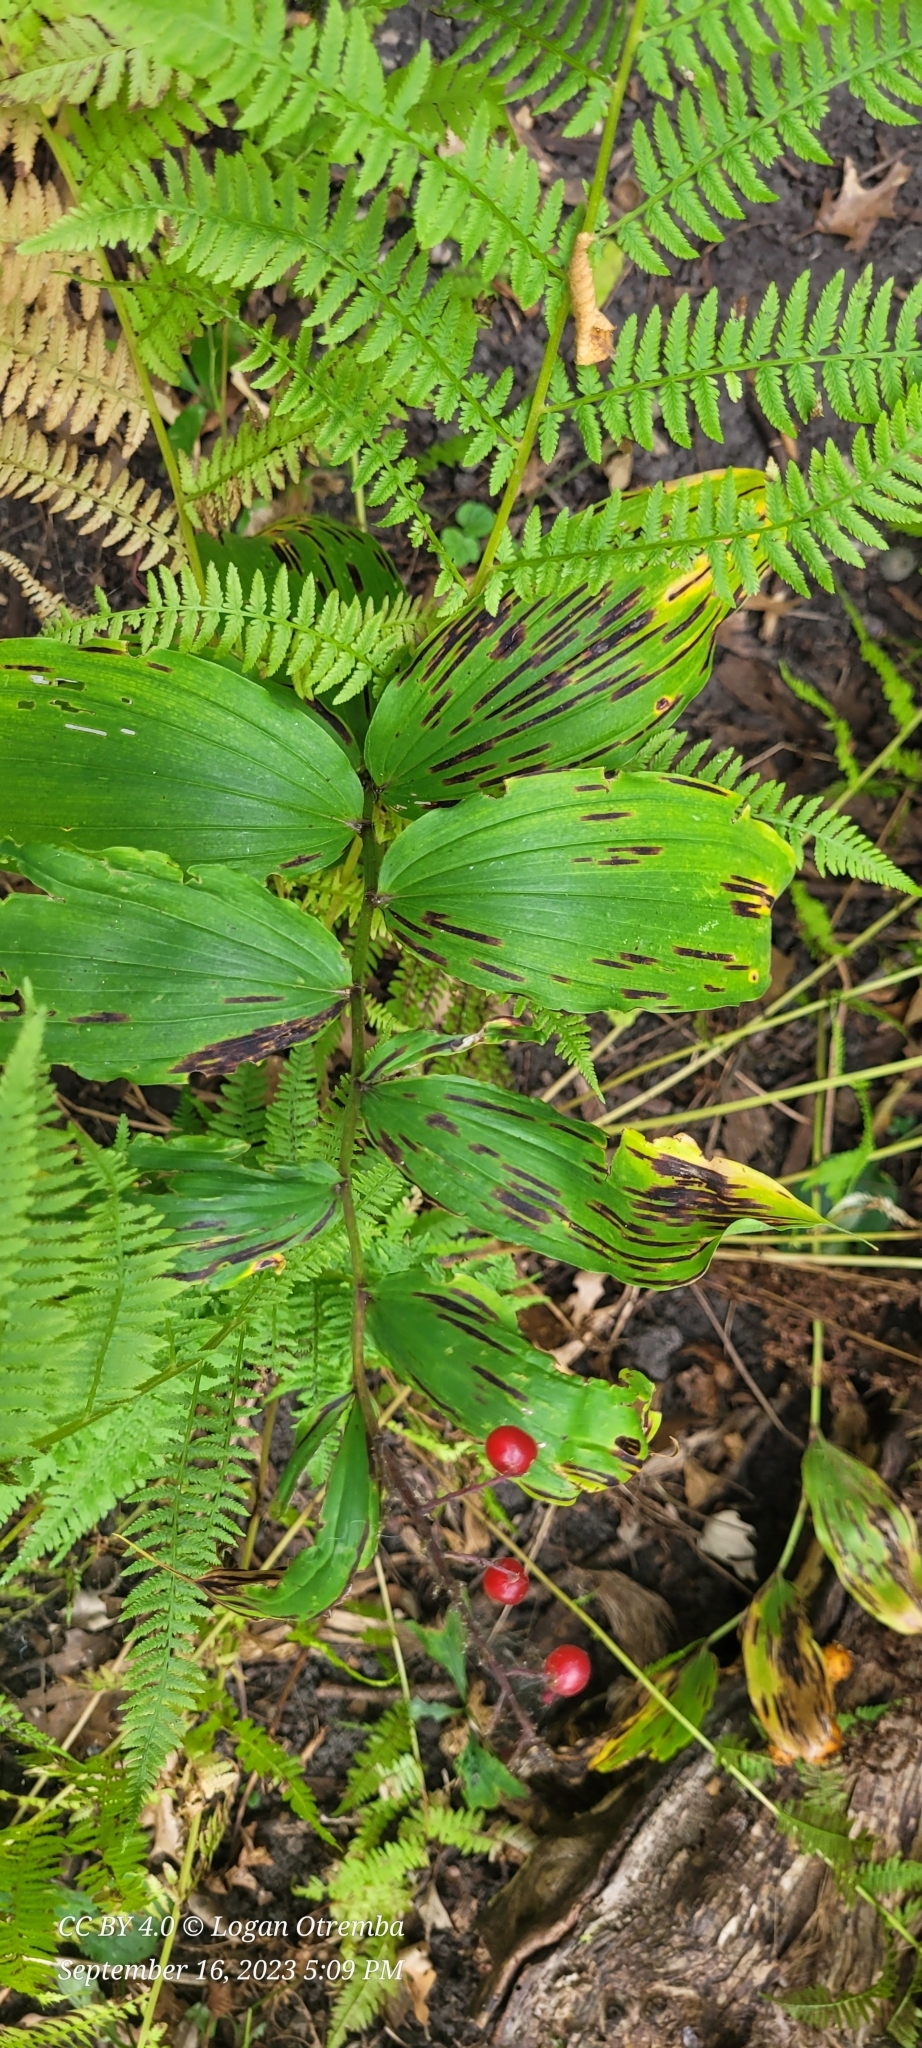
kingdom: Plantae
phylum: Tracheophyta
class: Liliopsida
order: Asparagales
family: Asparagaceae
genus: Maianthemum
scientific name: Maianthemum racemosum
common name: False spikenard
